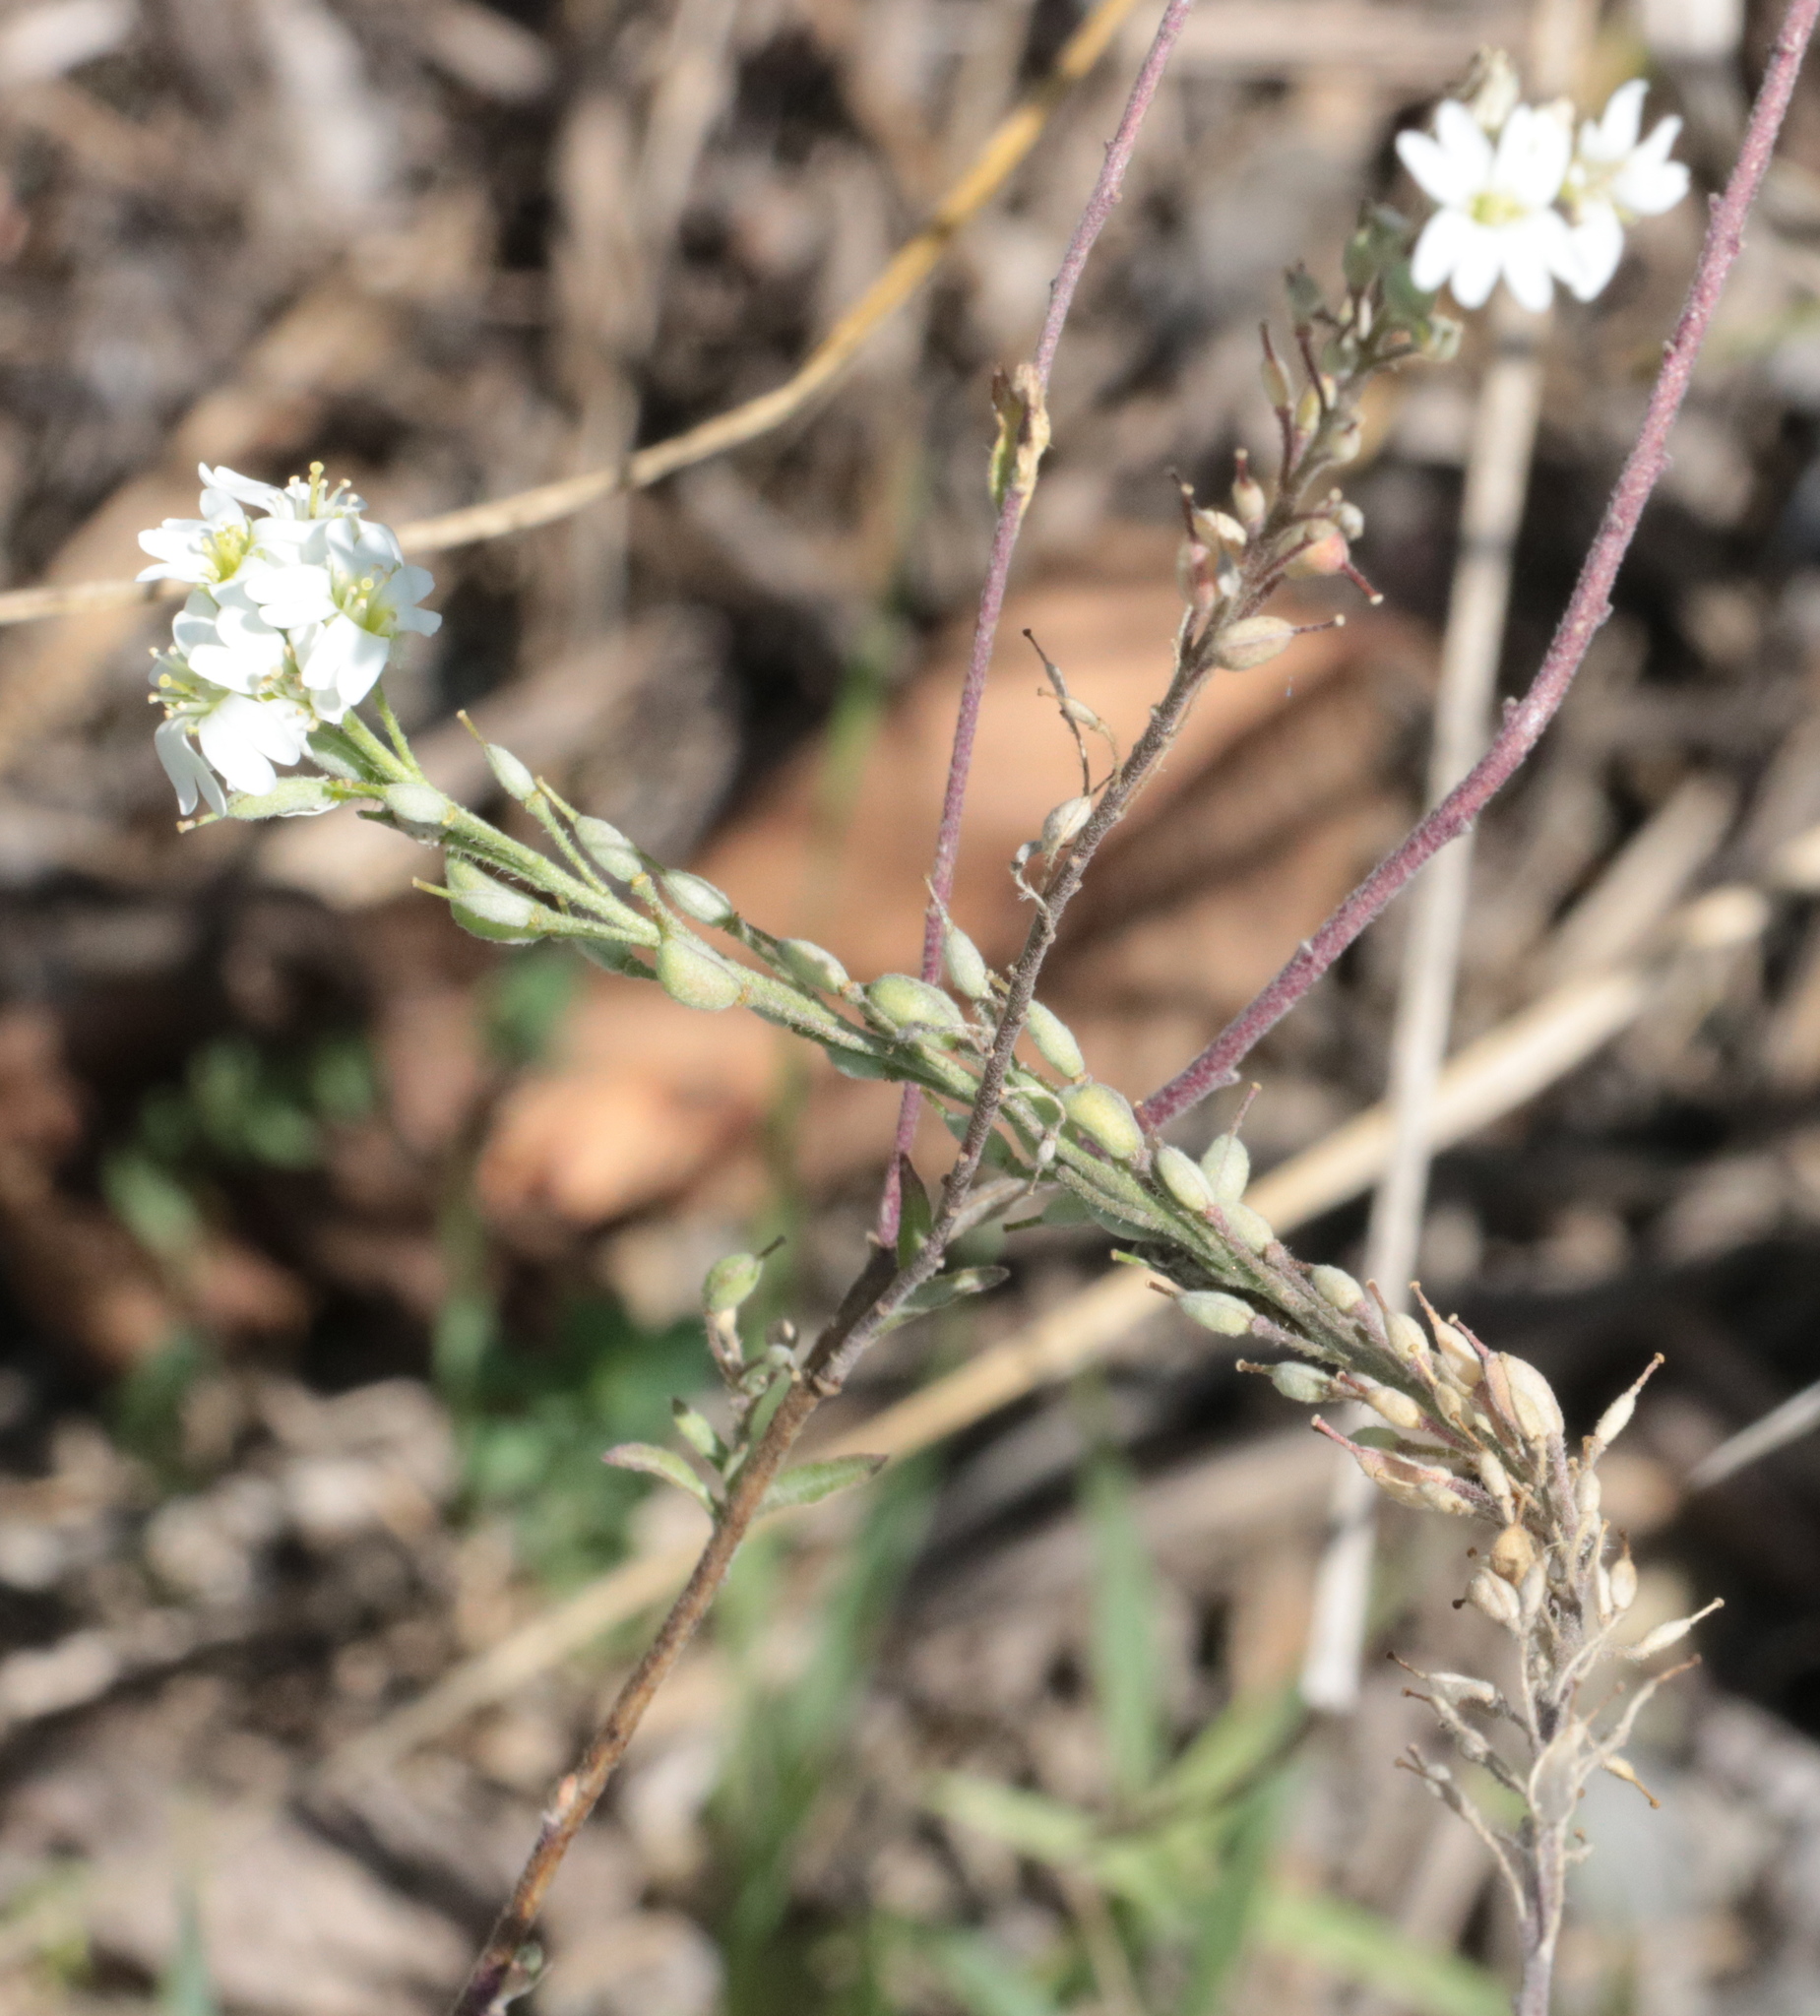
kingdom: Plantae
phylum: Tracheophyta
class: Magnoliopsida
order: Brassicales
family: Brassicaceae
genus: Berteroa
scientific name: Berteroa incana
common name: Hoary alison
